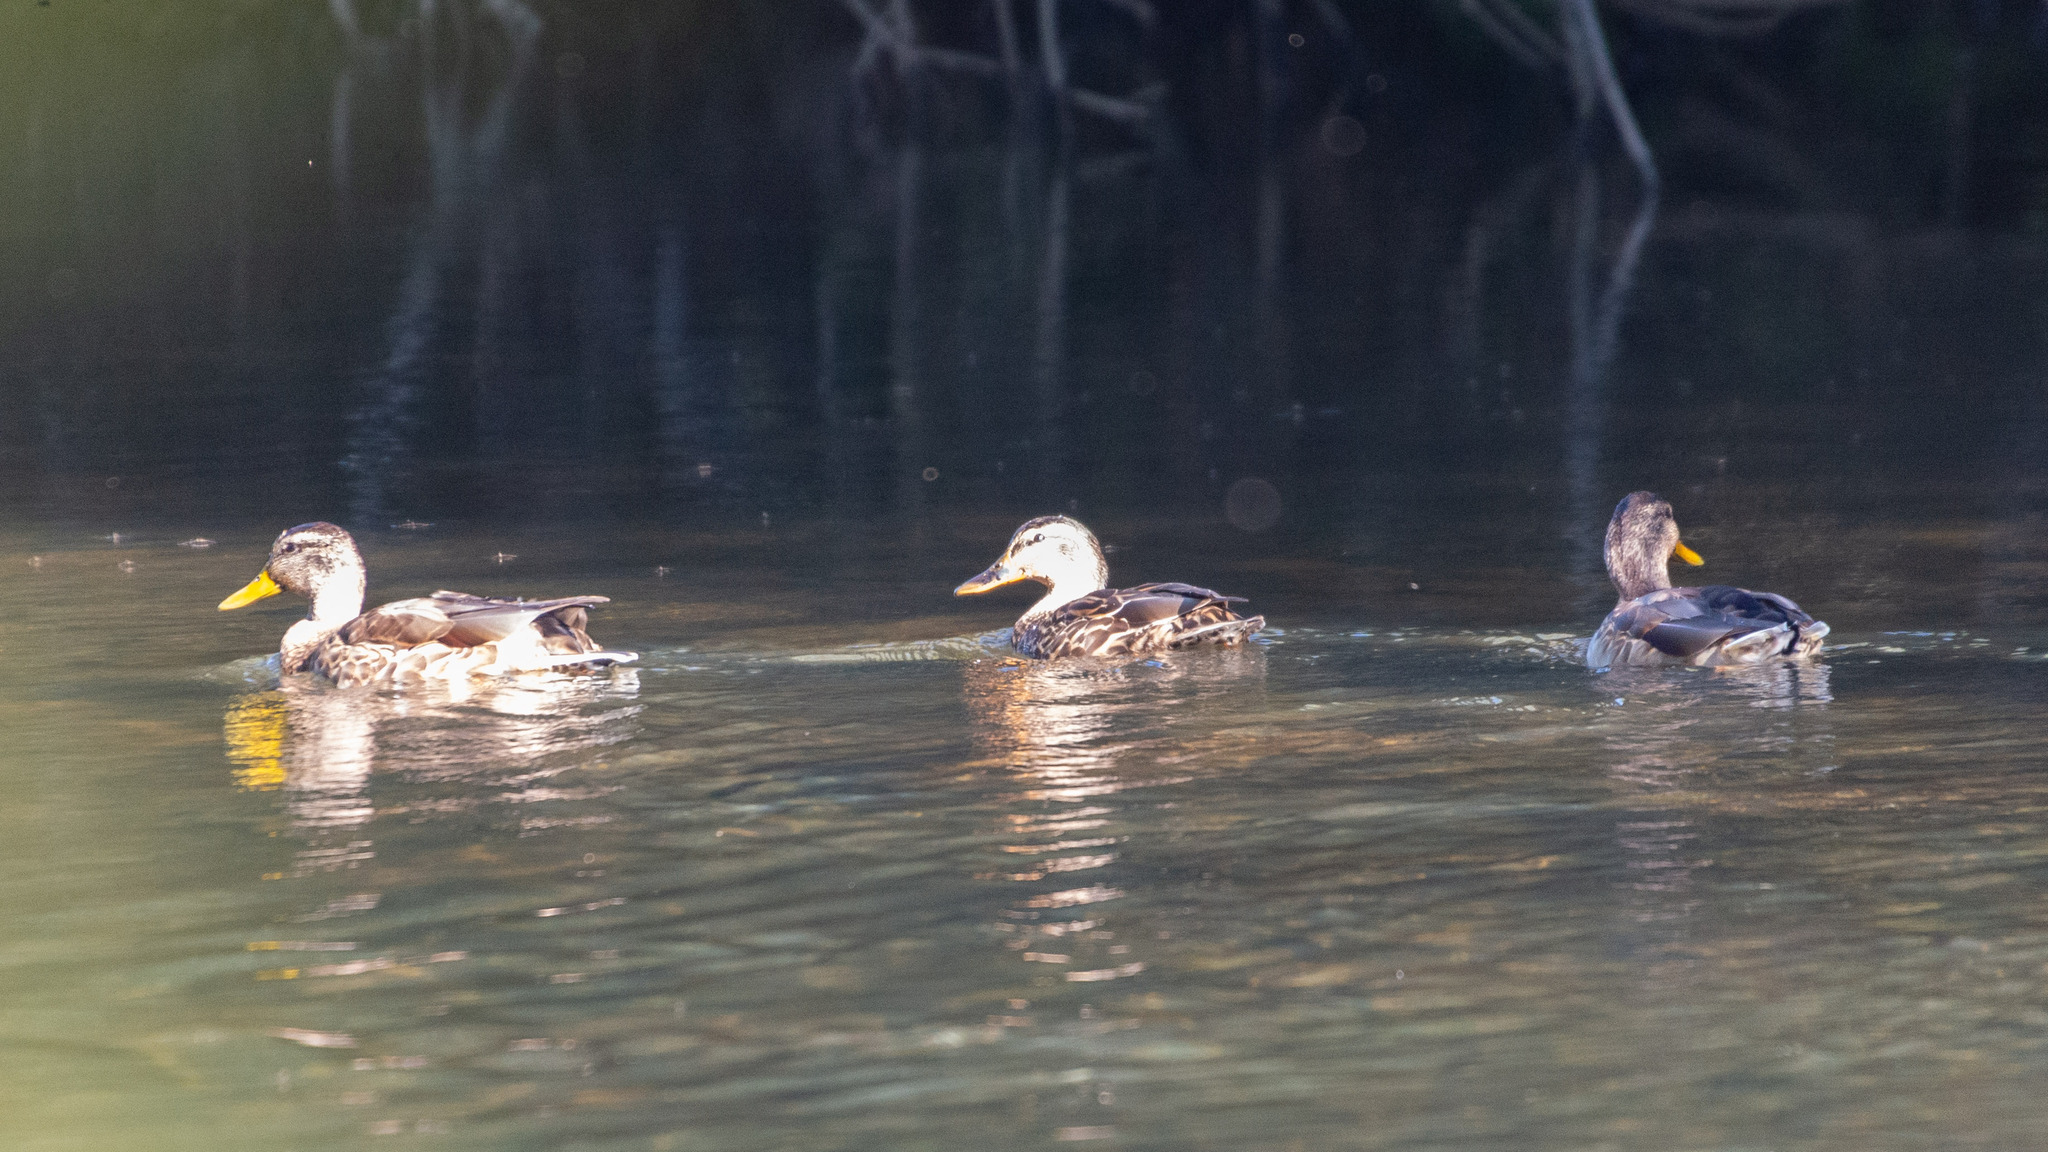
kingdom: Animalia
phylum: Chordata
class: Aves
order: Anseriformes
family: Anatidae
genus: Anas
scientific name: Anas platyrhynchos
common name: Mallard
